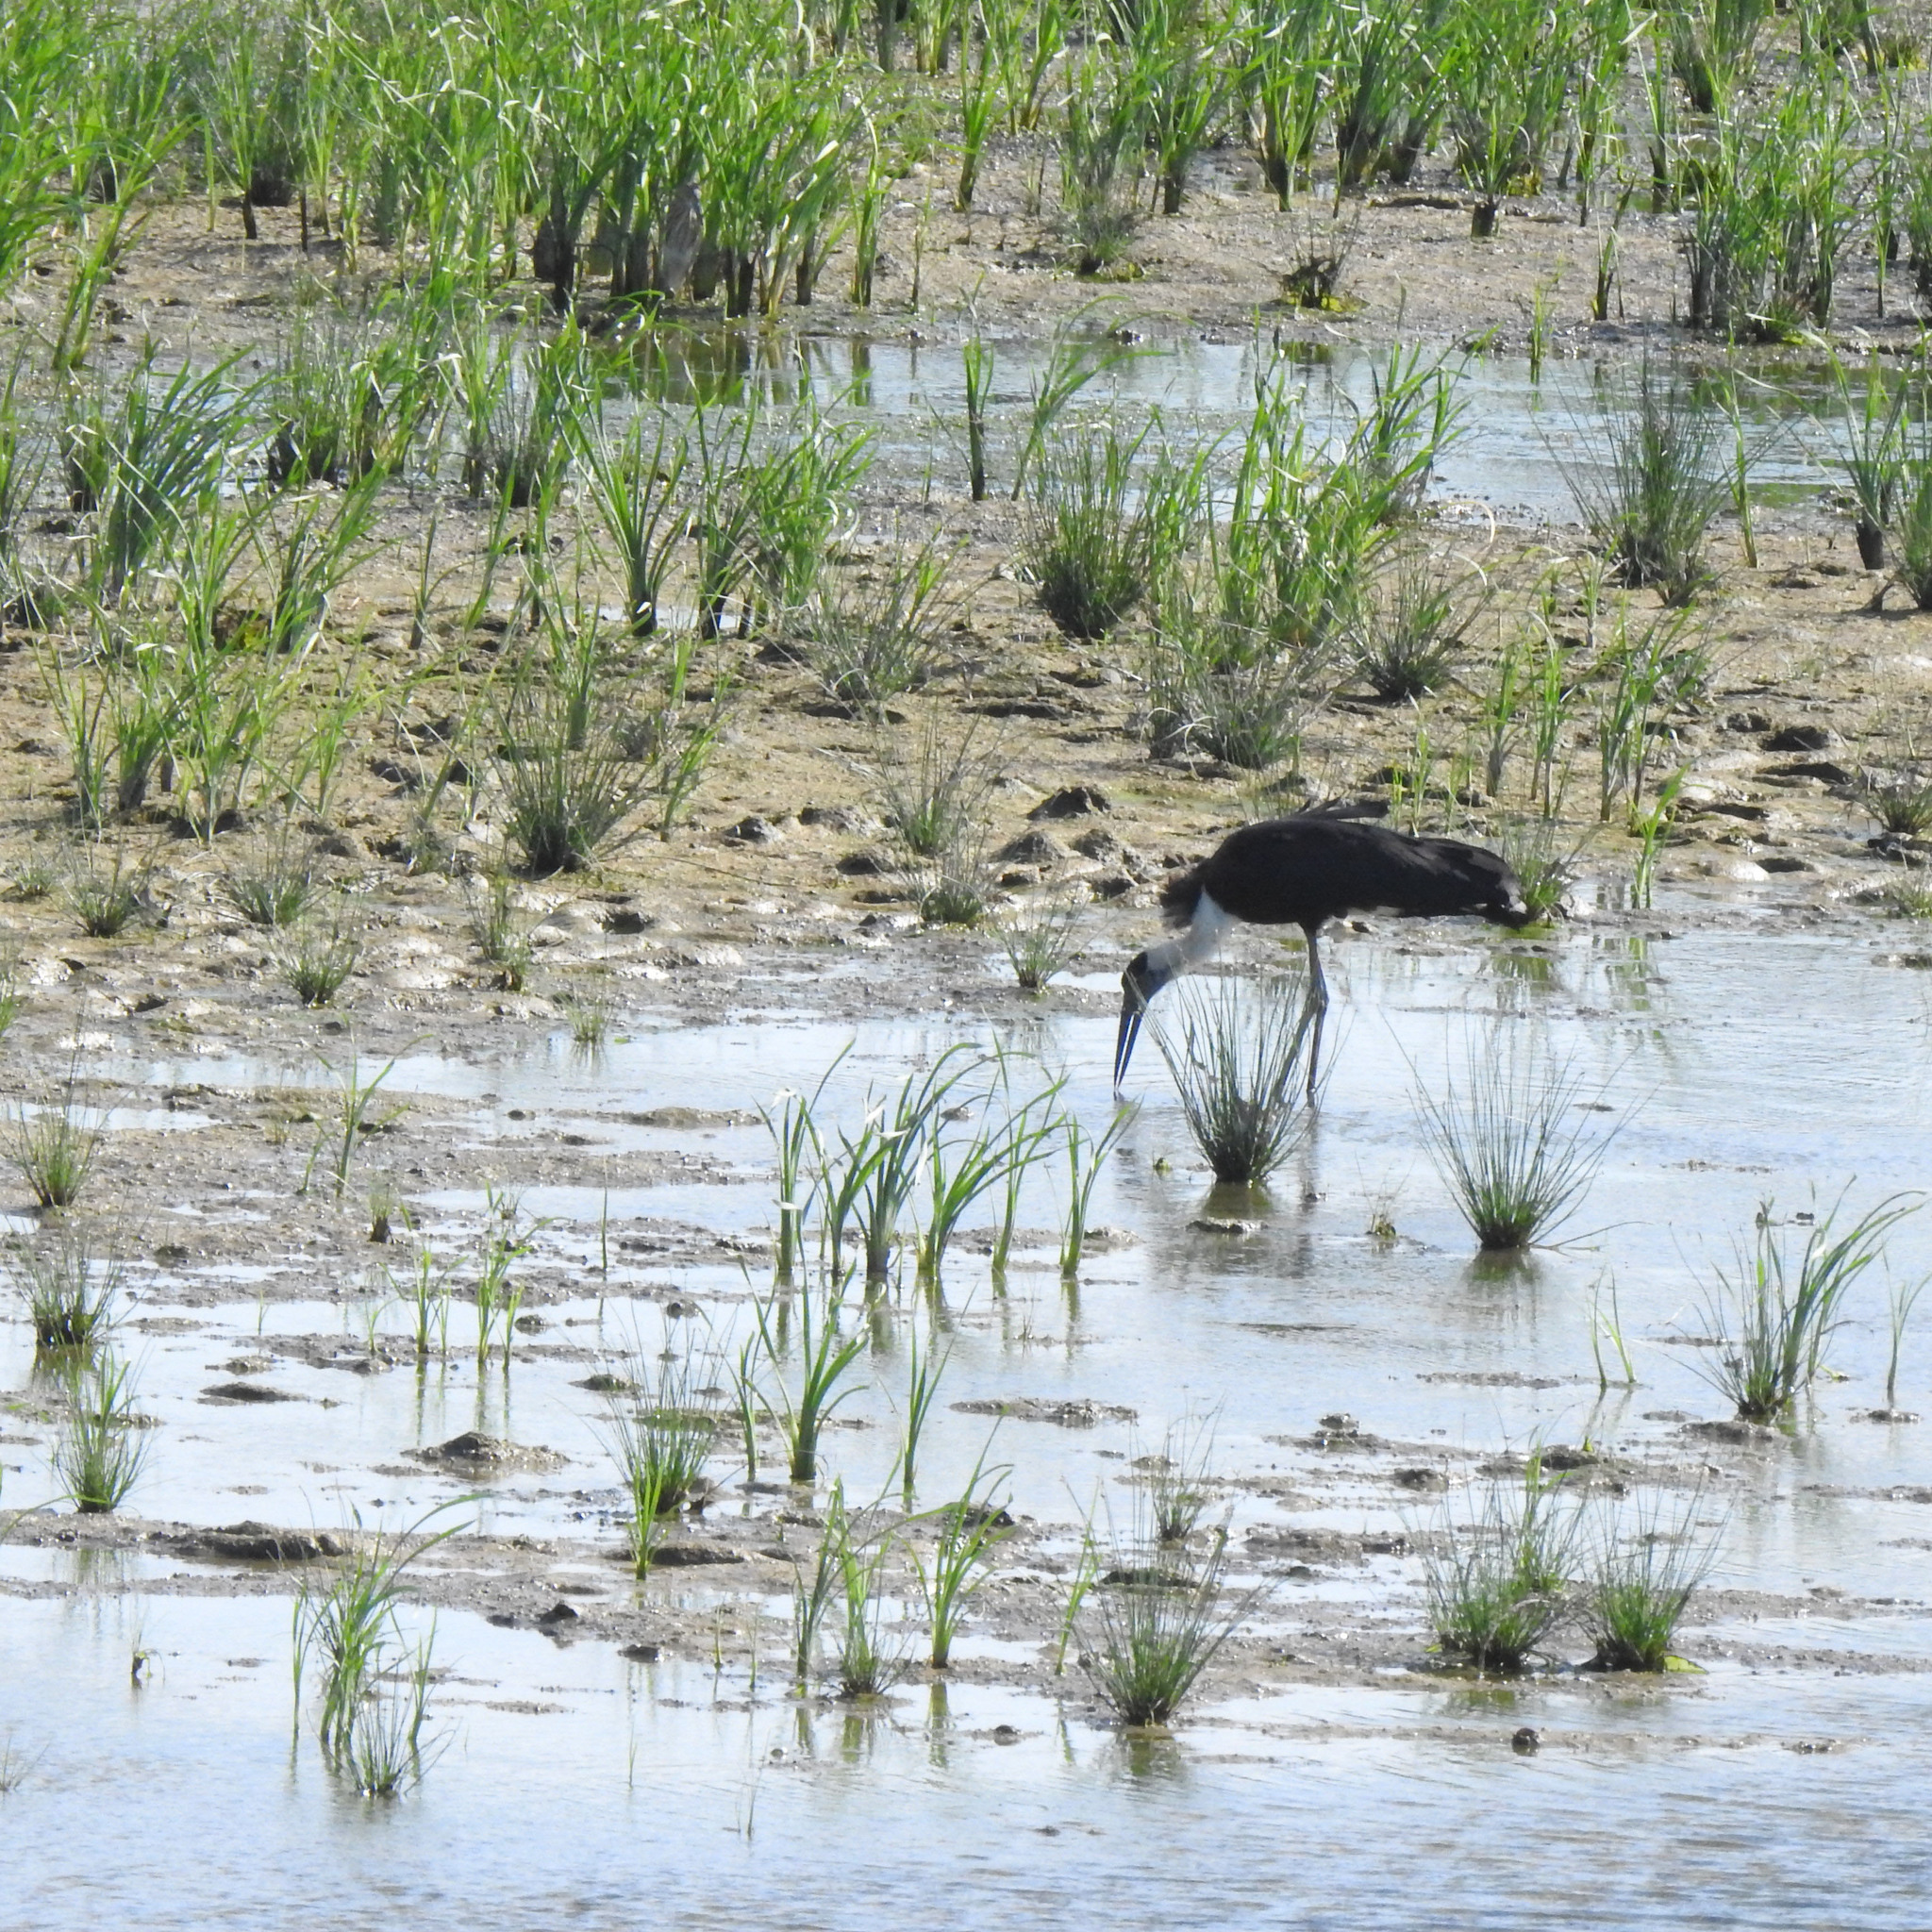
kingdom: Animalia
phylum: Chordata
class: Aves
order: Ciconiiformes
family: Ciconiidae
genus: Ciconia
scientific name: Ciconia episcopus
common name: Woolly-necked stork
